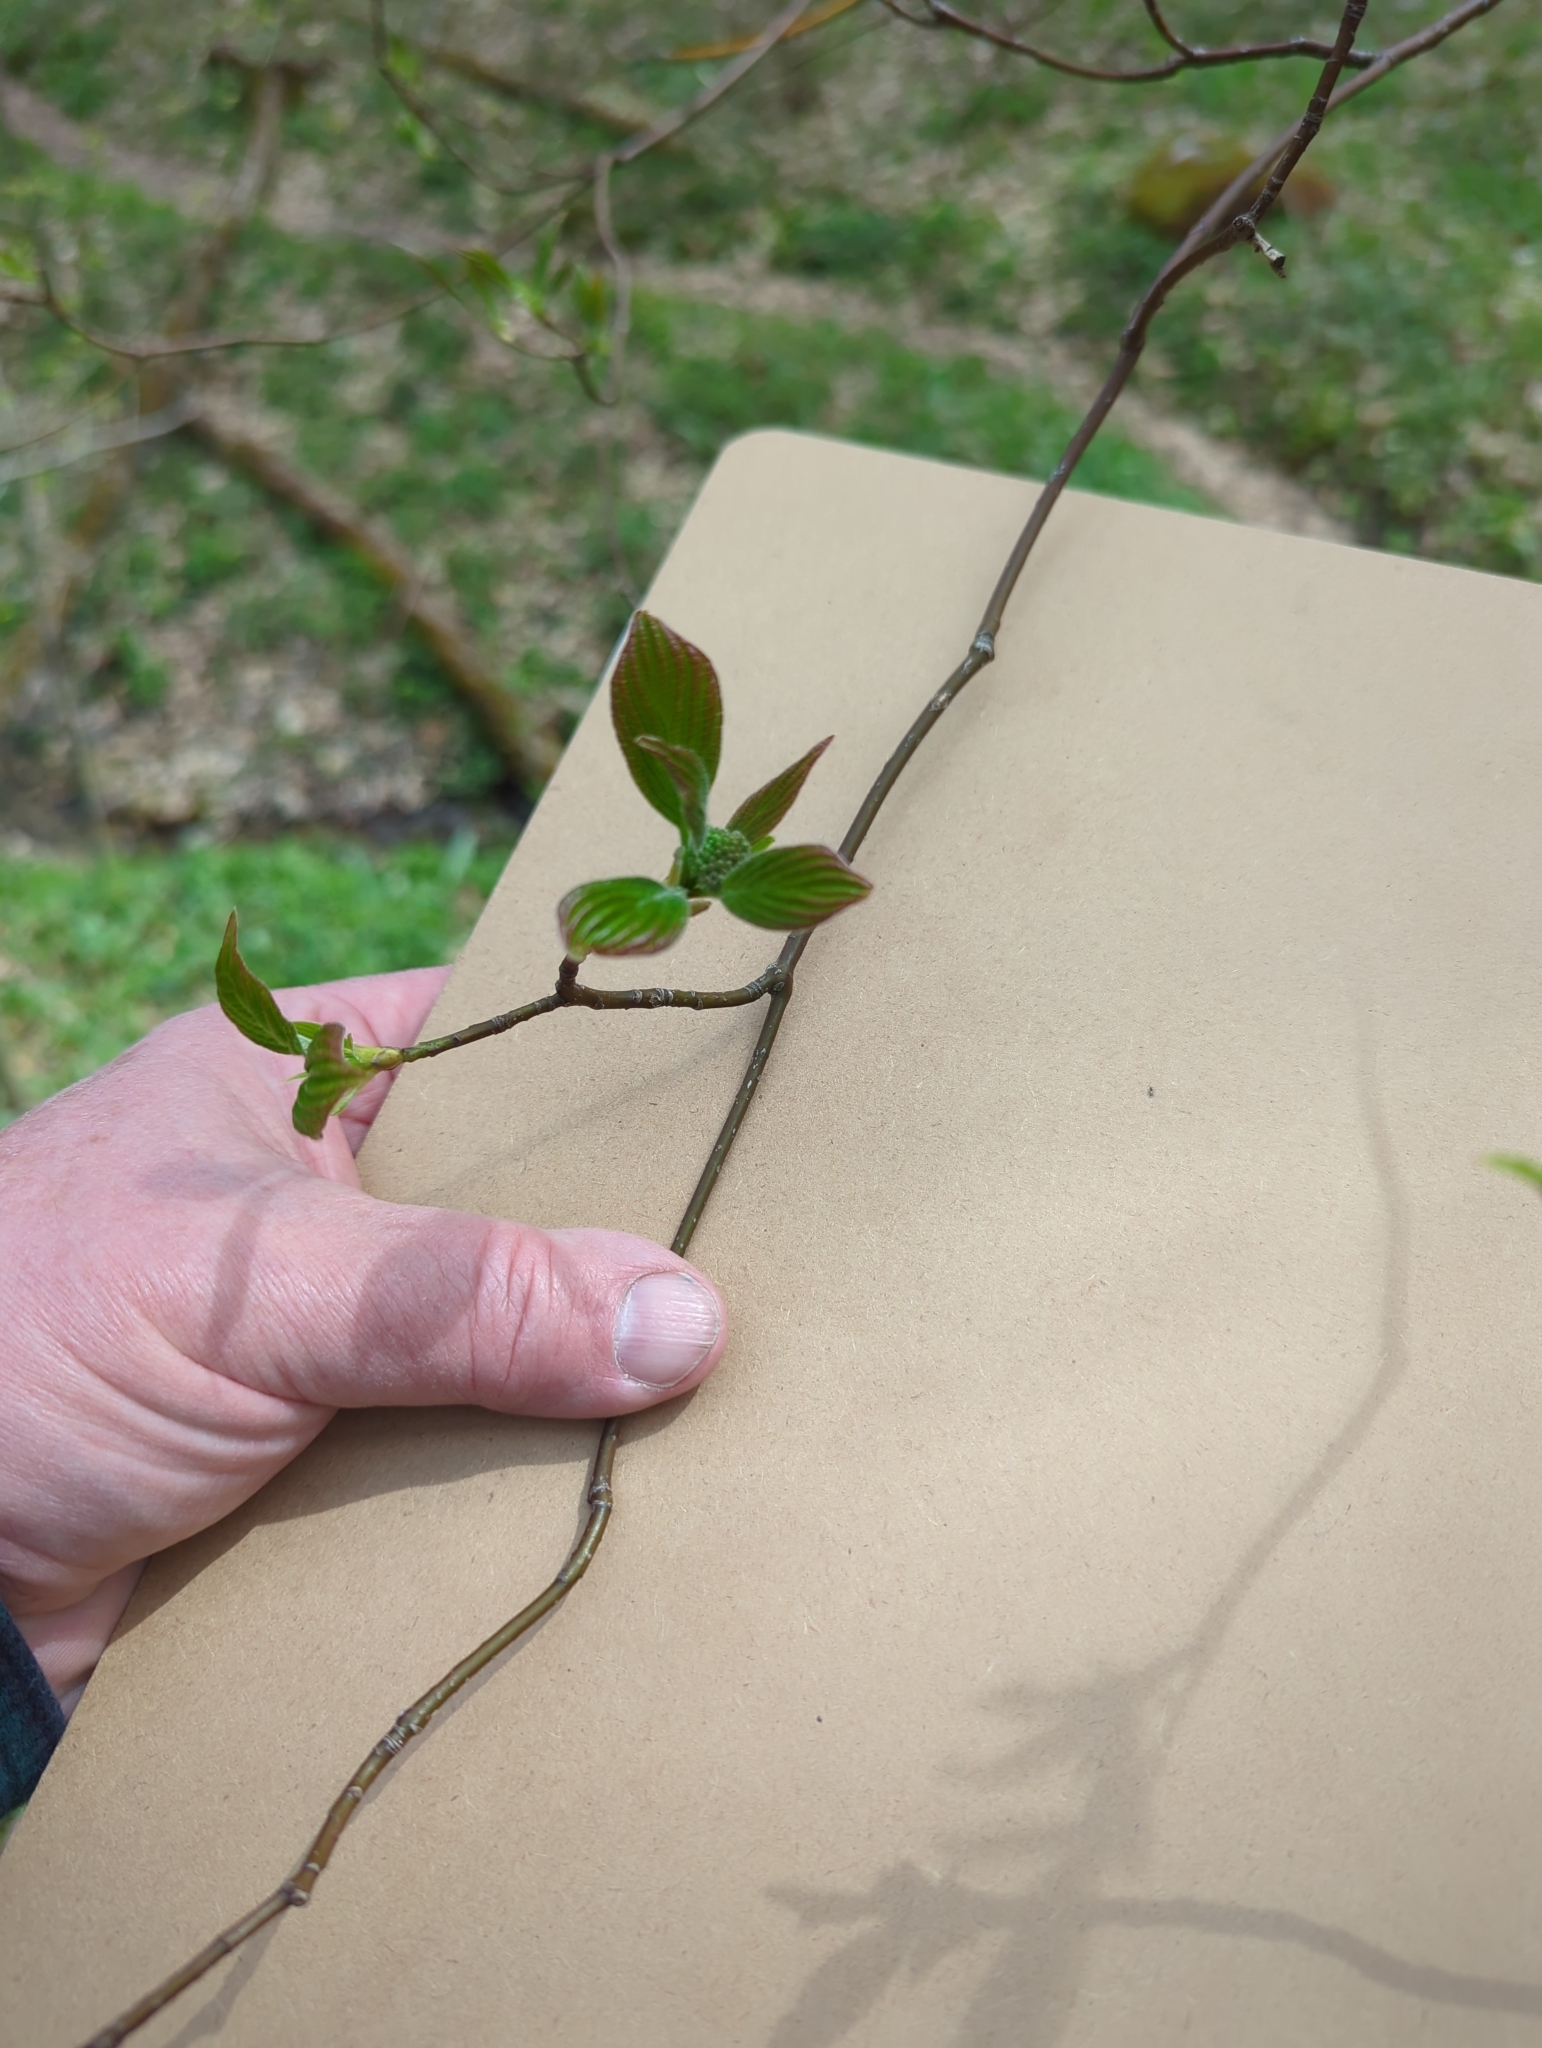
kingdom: Plantae
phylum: Tracheophyta
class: Magnoliopsida
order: Cornales
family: Cornaceae
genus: Cornus
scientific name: Cornus alternifolia
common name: Pagoda dogwood
